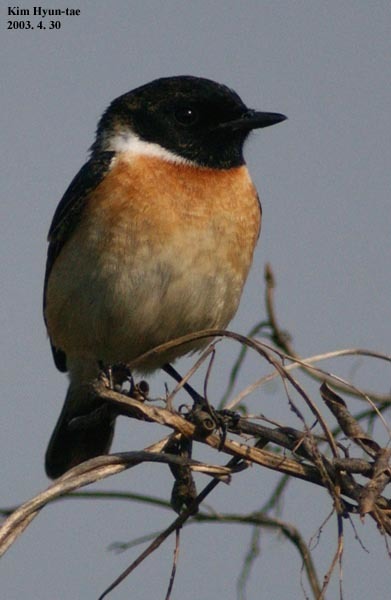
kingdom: Animalia
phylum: Chordata
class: Aves
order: Passeriformes
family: Muscicapidae
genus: Saxicola
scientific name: Saxicola stejnegeri
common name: Stejneger's stonechat
